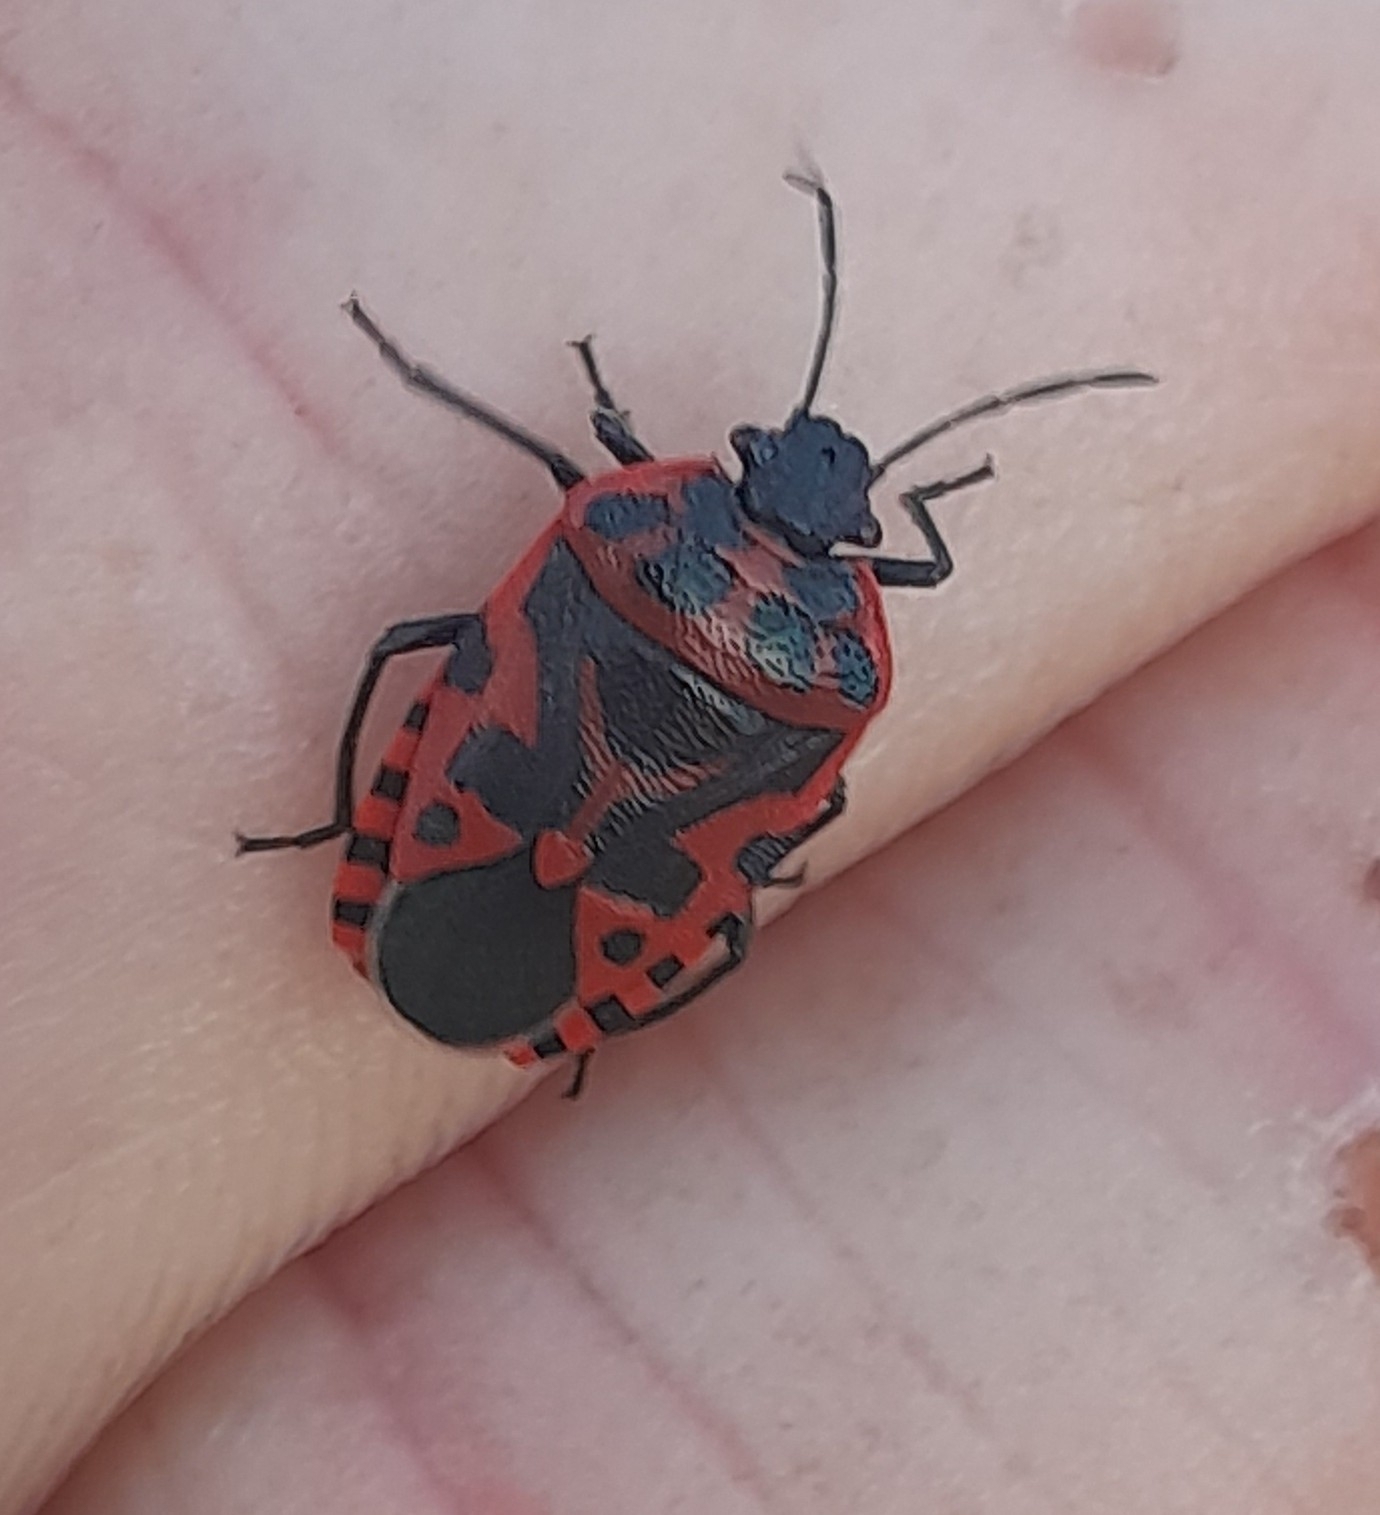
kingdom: Animalia
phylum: Arthropoda
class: Insecta
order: Hemiptera
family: Pentatomidae
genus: Eurydema
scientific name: Eurydema ventralis
